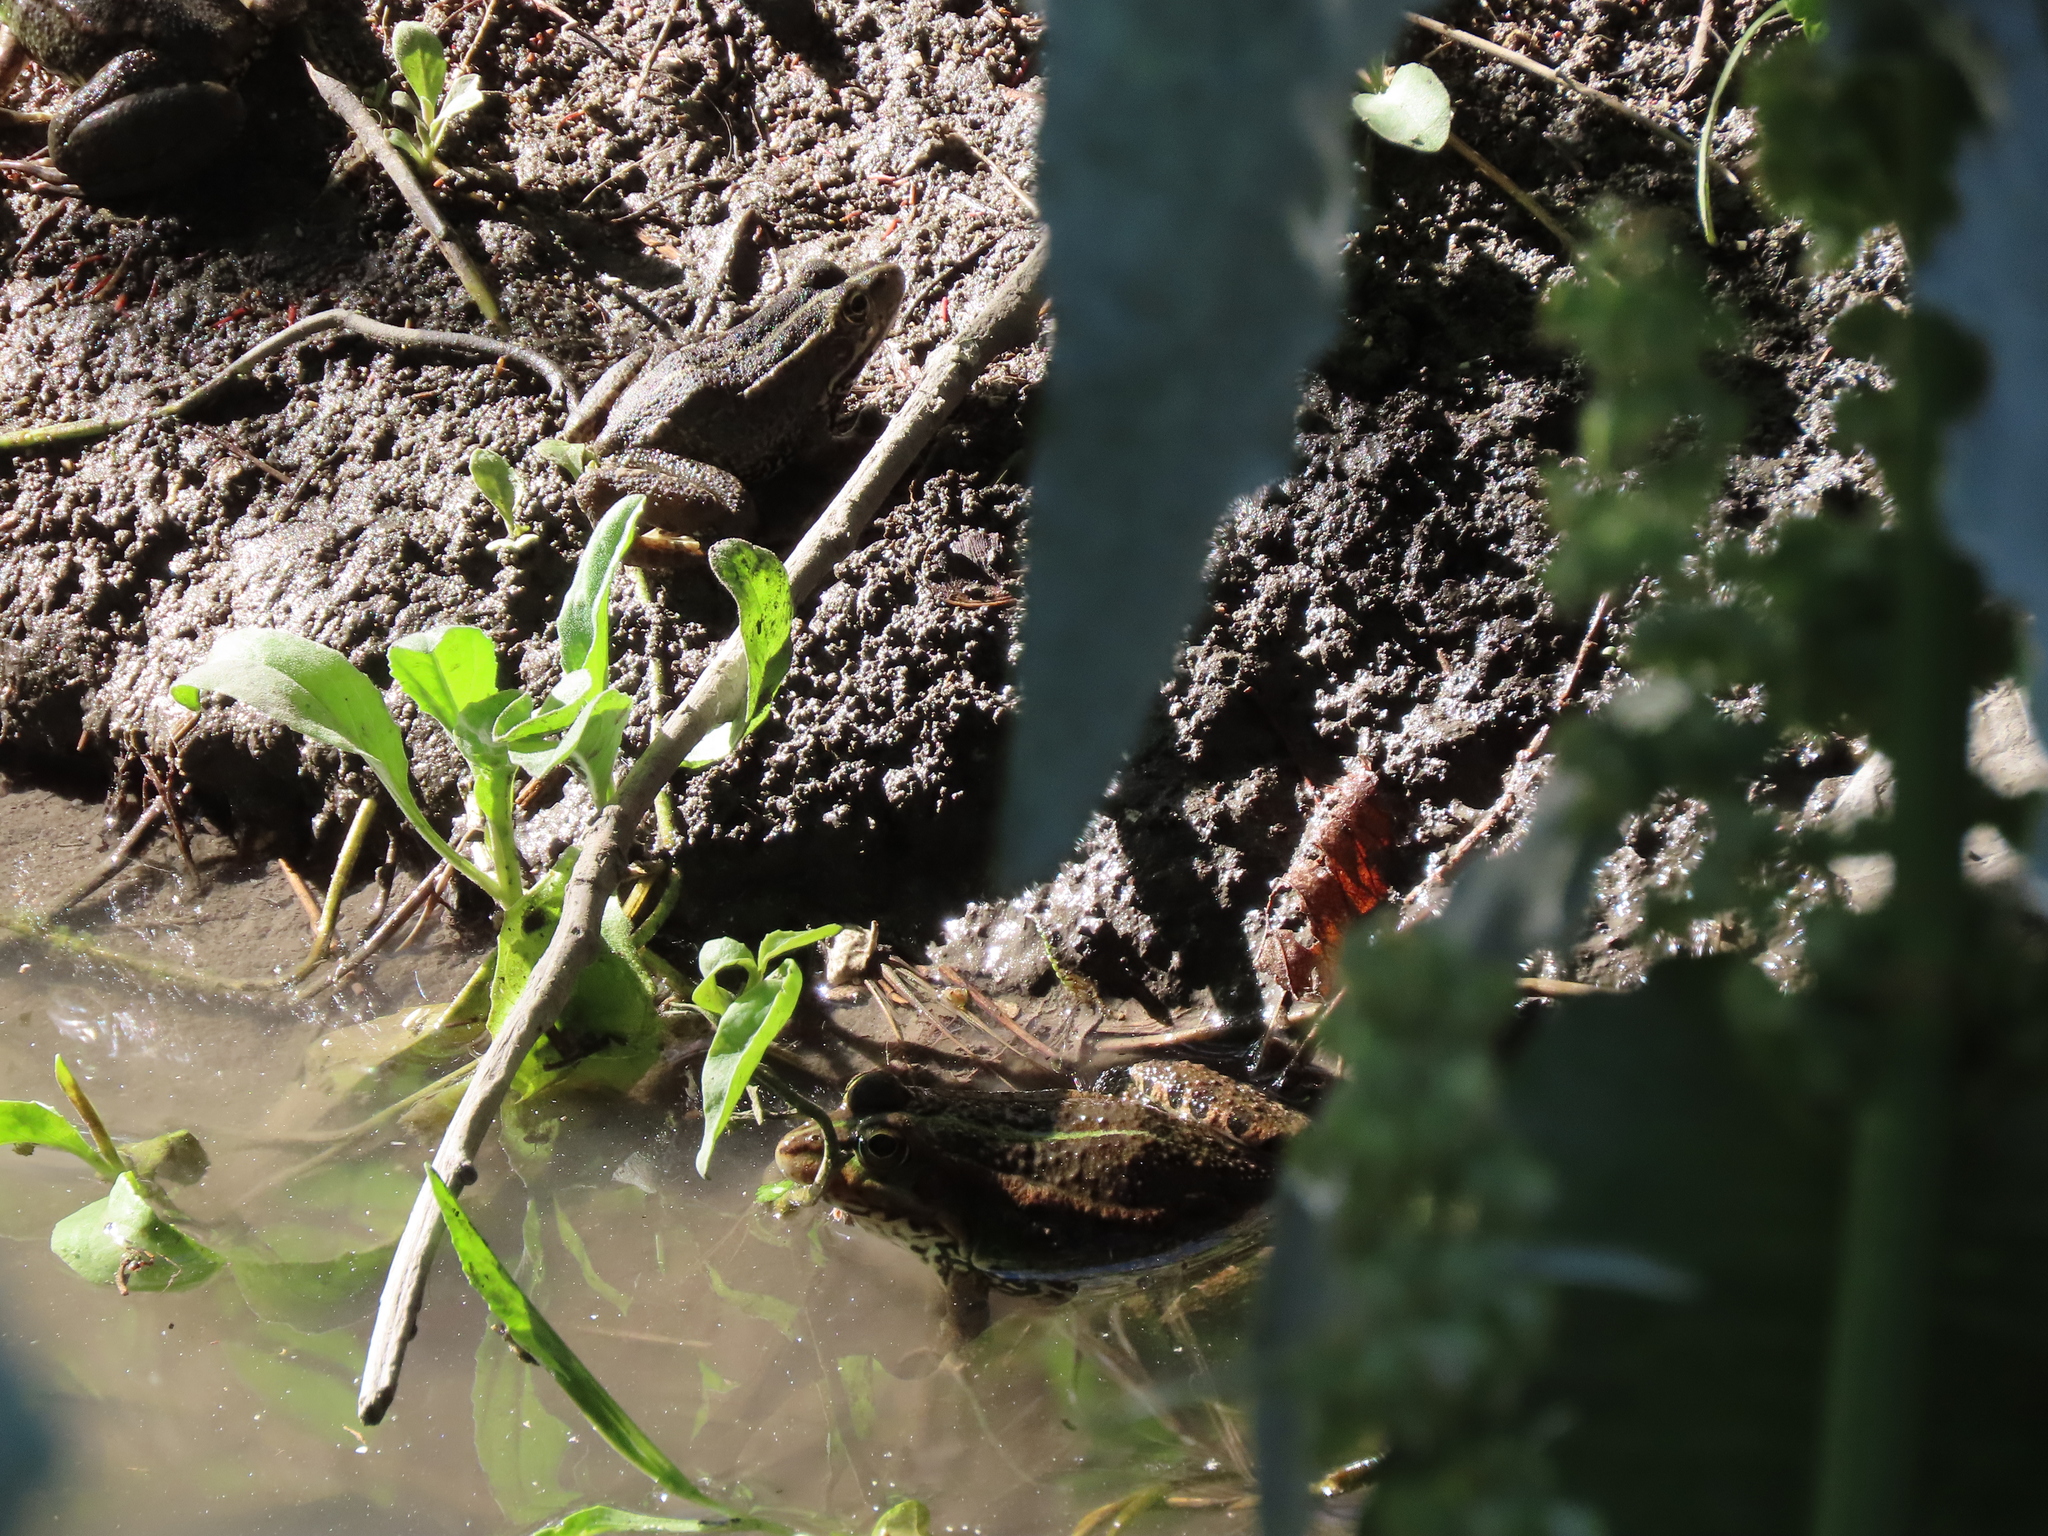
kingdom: Animalia
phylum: Chordata
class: Amphibia
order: Anura
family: Ranidae
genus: Pelophylax
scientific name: Pelophylax perezi
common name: Perez's frog
